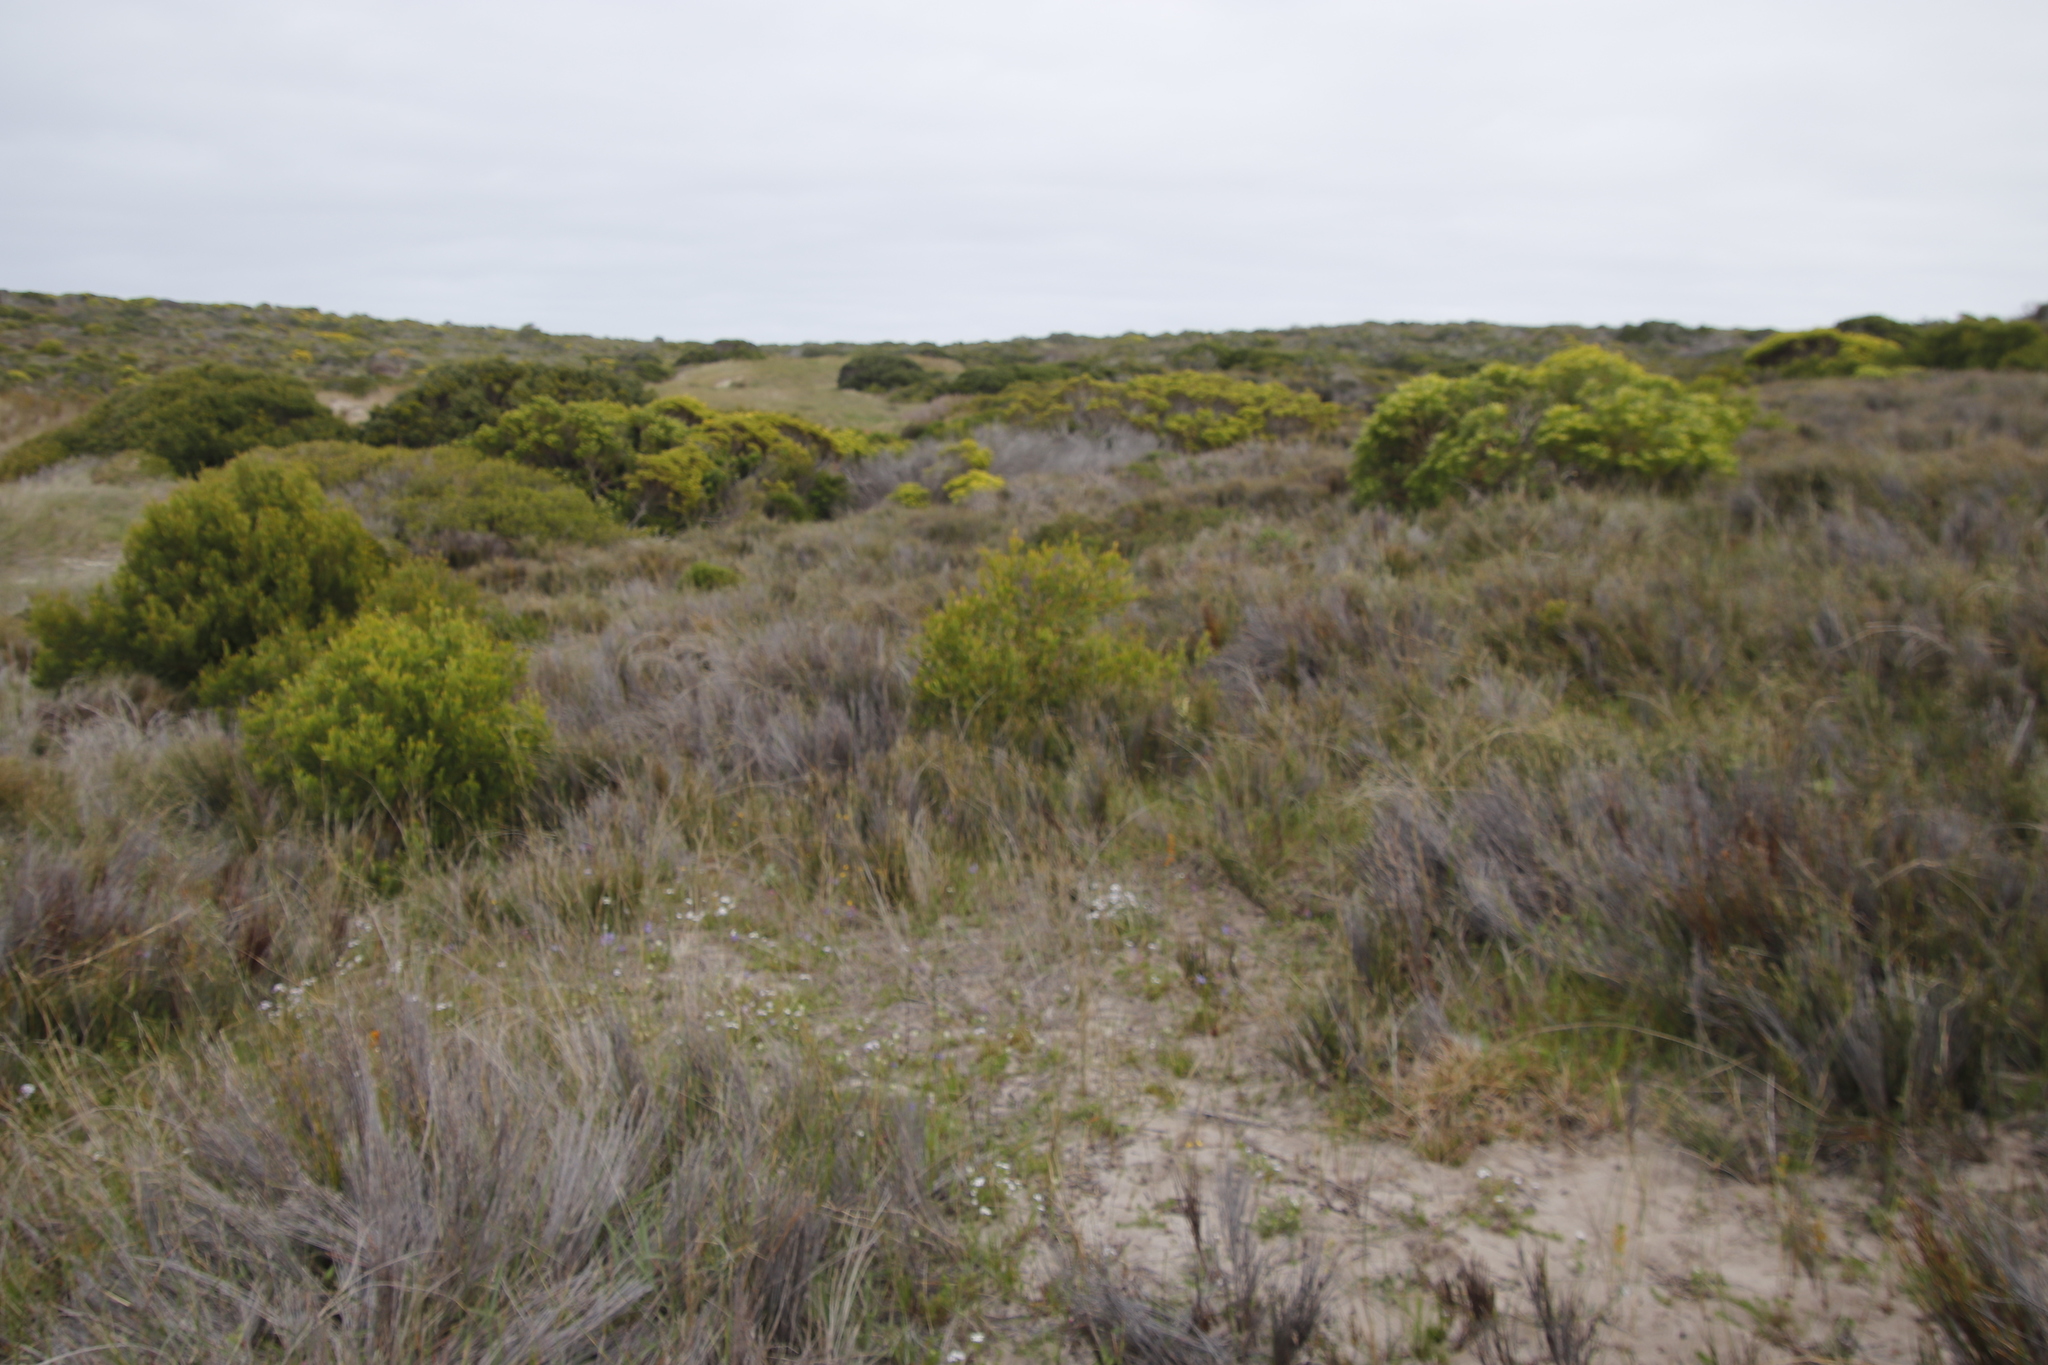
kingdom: Plantae
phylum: Tracheophyta
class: Magnoliopsida
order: Fabales
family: Fabaceae
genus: Acacia
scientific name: Acacia cyclops
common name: Coastal wattle
